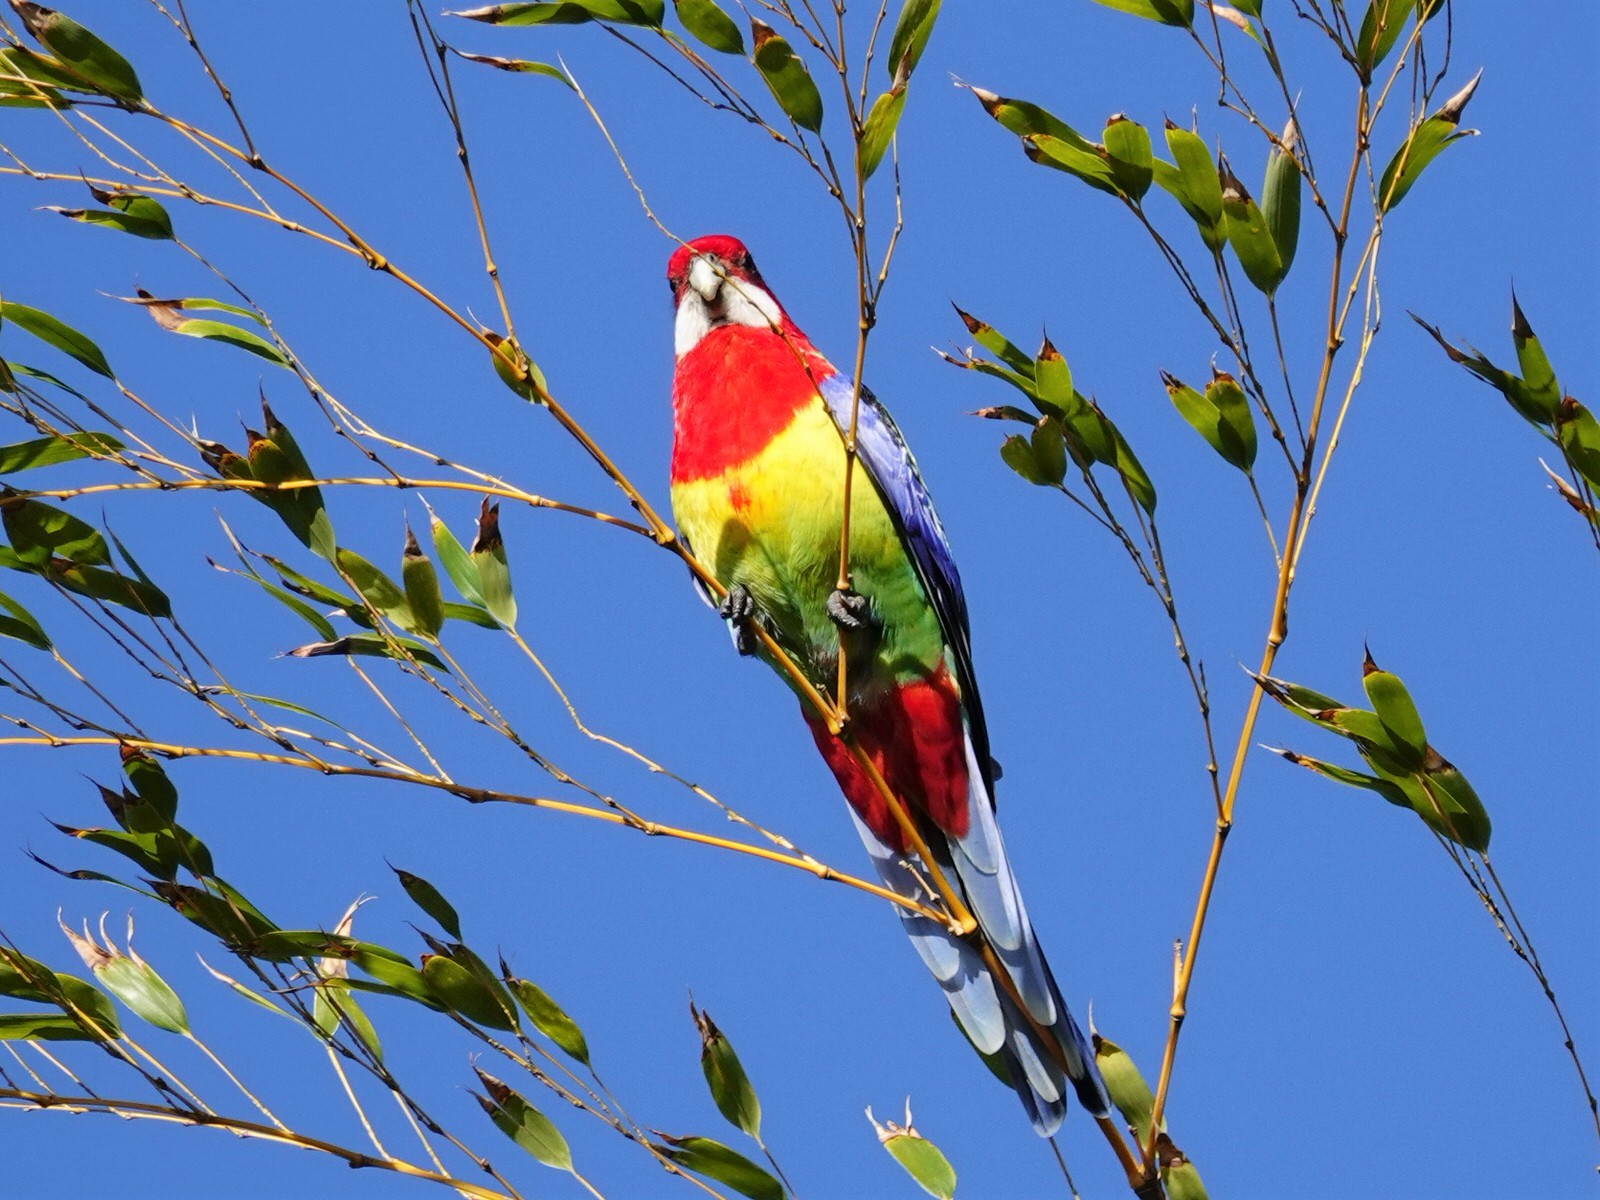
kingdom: Animalia
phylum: Chordata
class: Aves
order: Psittaciformes
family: Psittacidae
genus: Platycercus
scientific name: Platycercus eximius
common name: Eastern rosella
